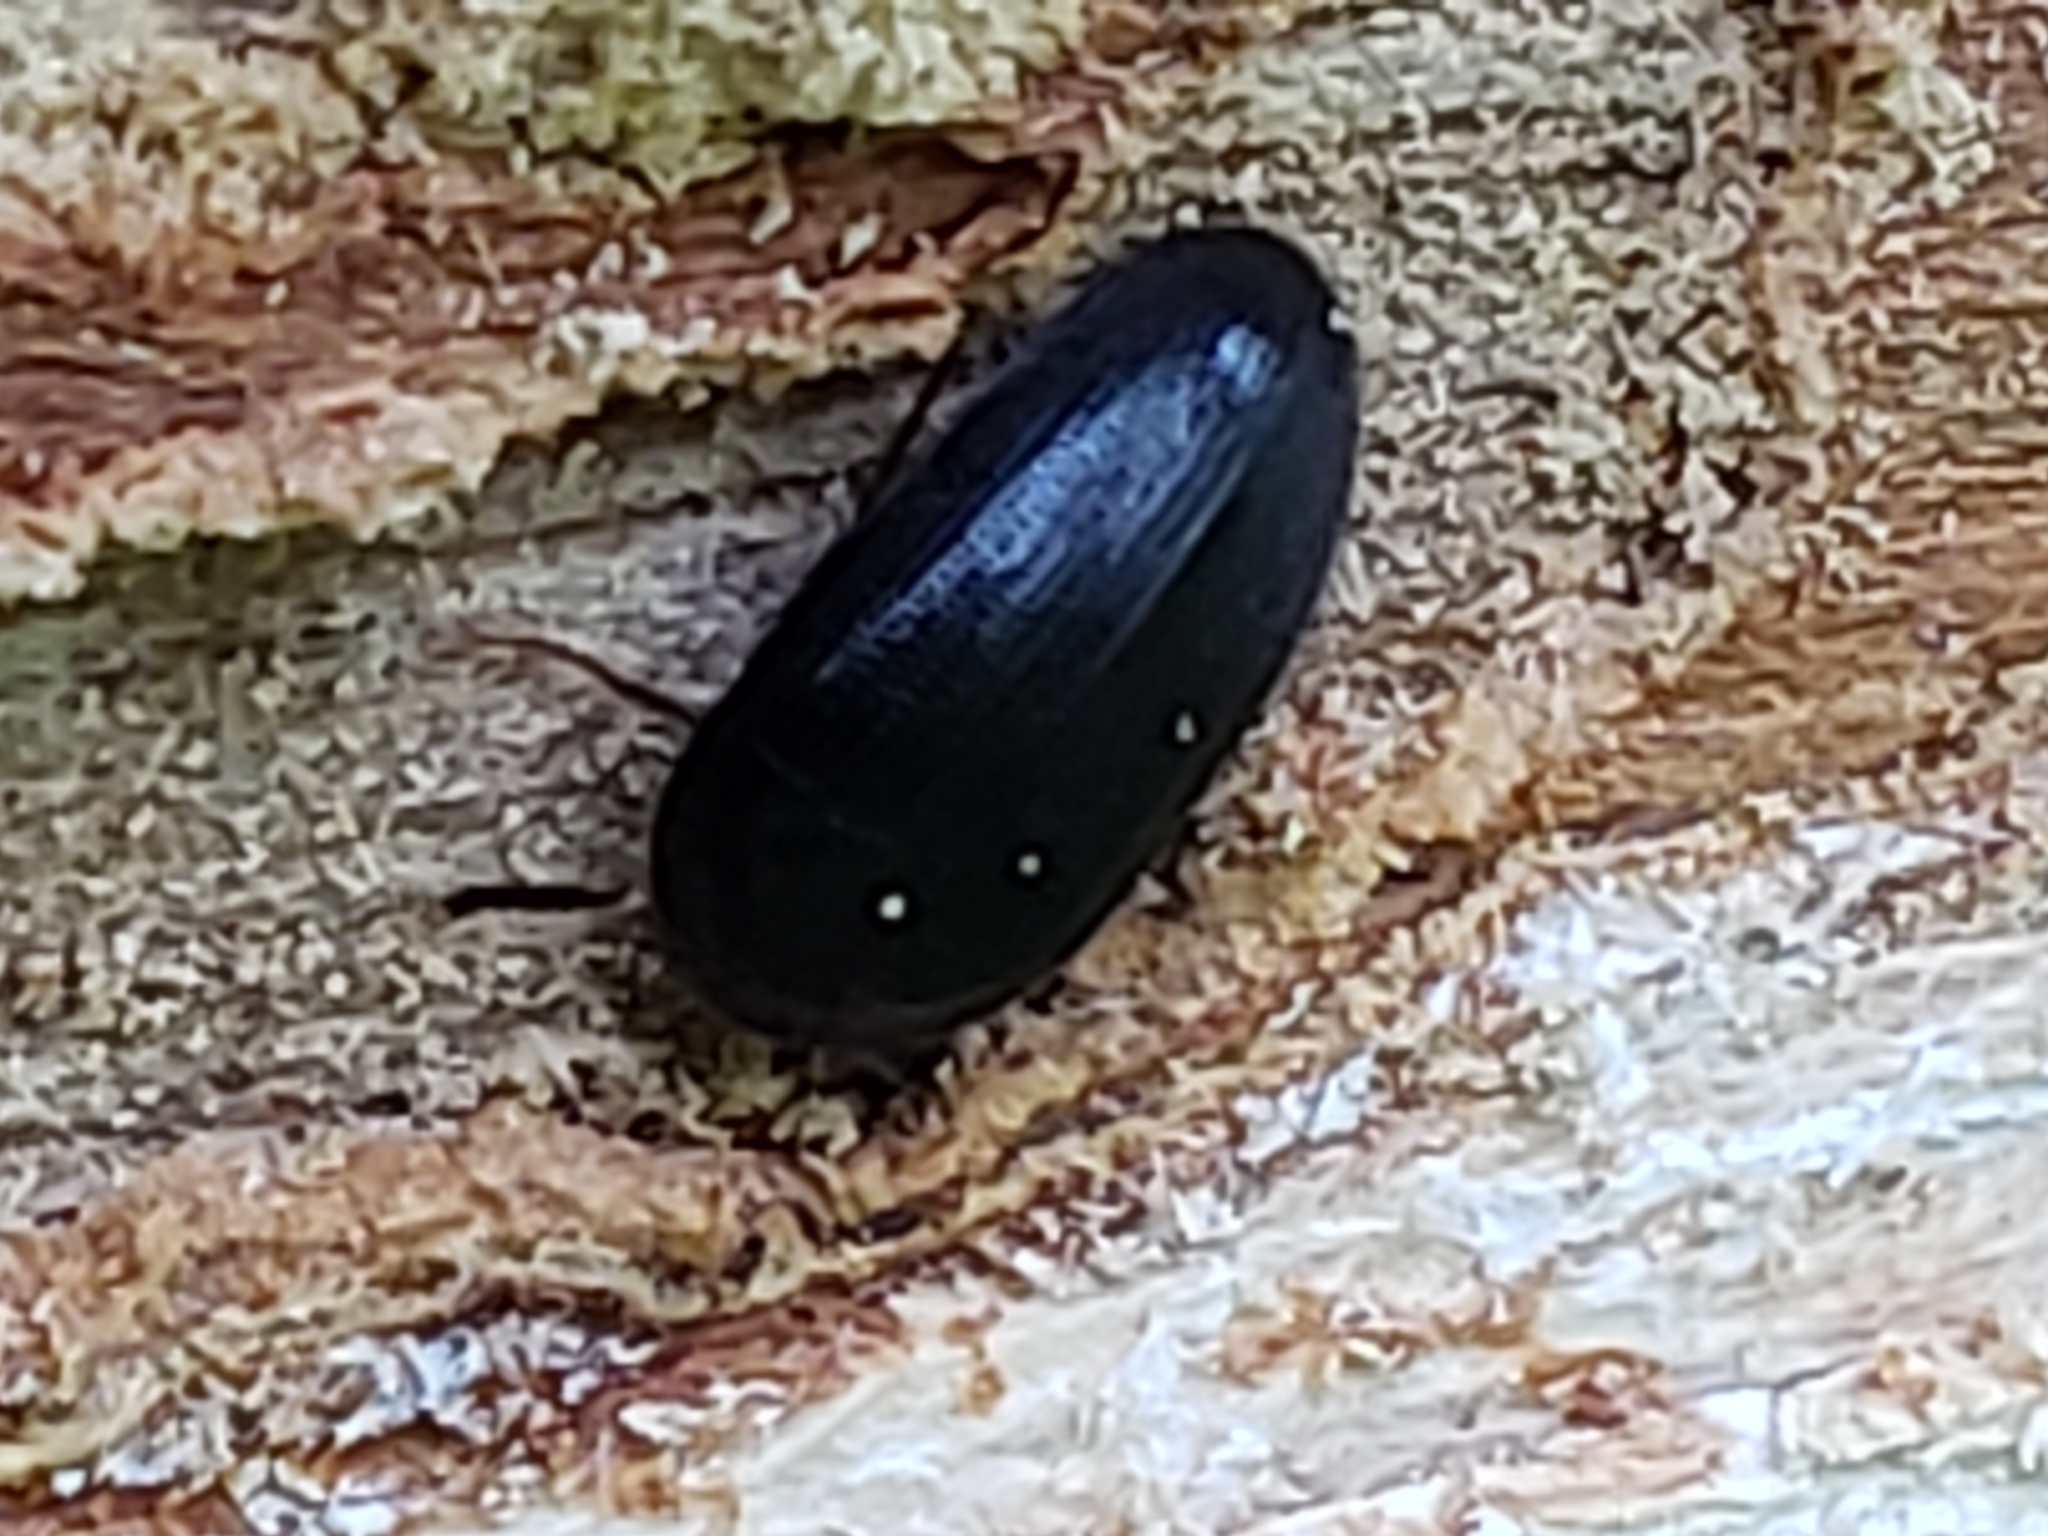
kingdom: Animalia
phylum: Arthropoda
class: Insecta
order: Coleoptera
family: Tetratomidae
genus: Eustrophopsis
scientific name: Eustrophopsis bicolor
